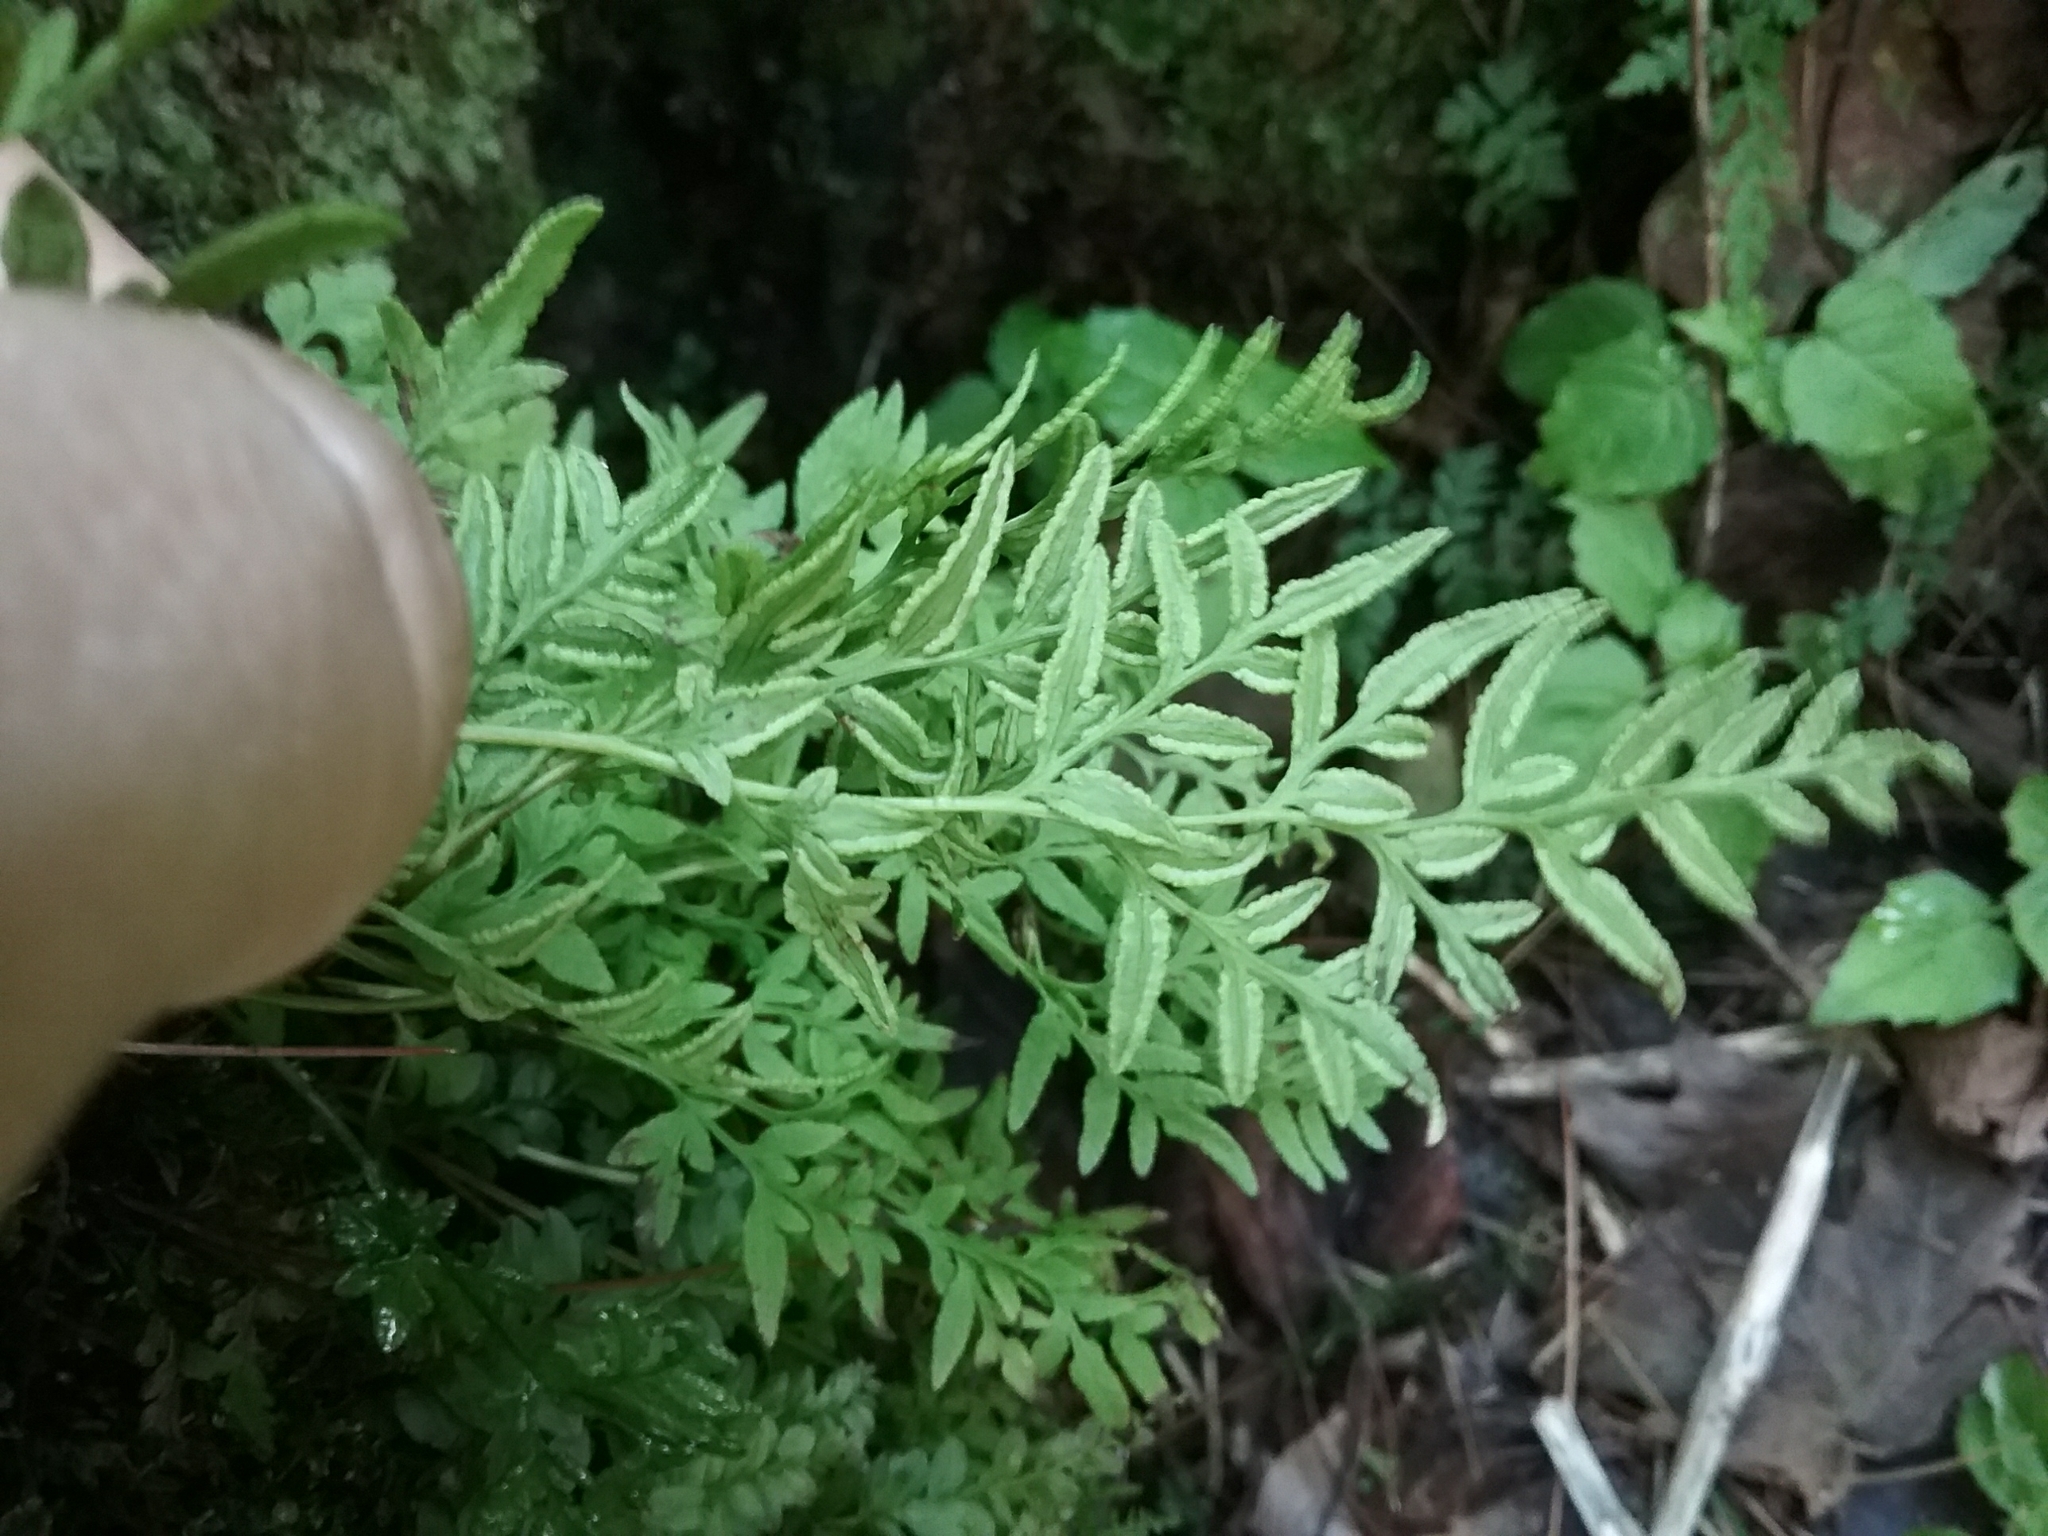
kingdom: Plantae
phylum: Tracheophyta
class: Polypodiopsida
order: Polypodiales
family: Pteridaceae
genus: Cryptogramma
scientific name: Cryptogramma stelleri
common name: Cliff-brake
